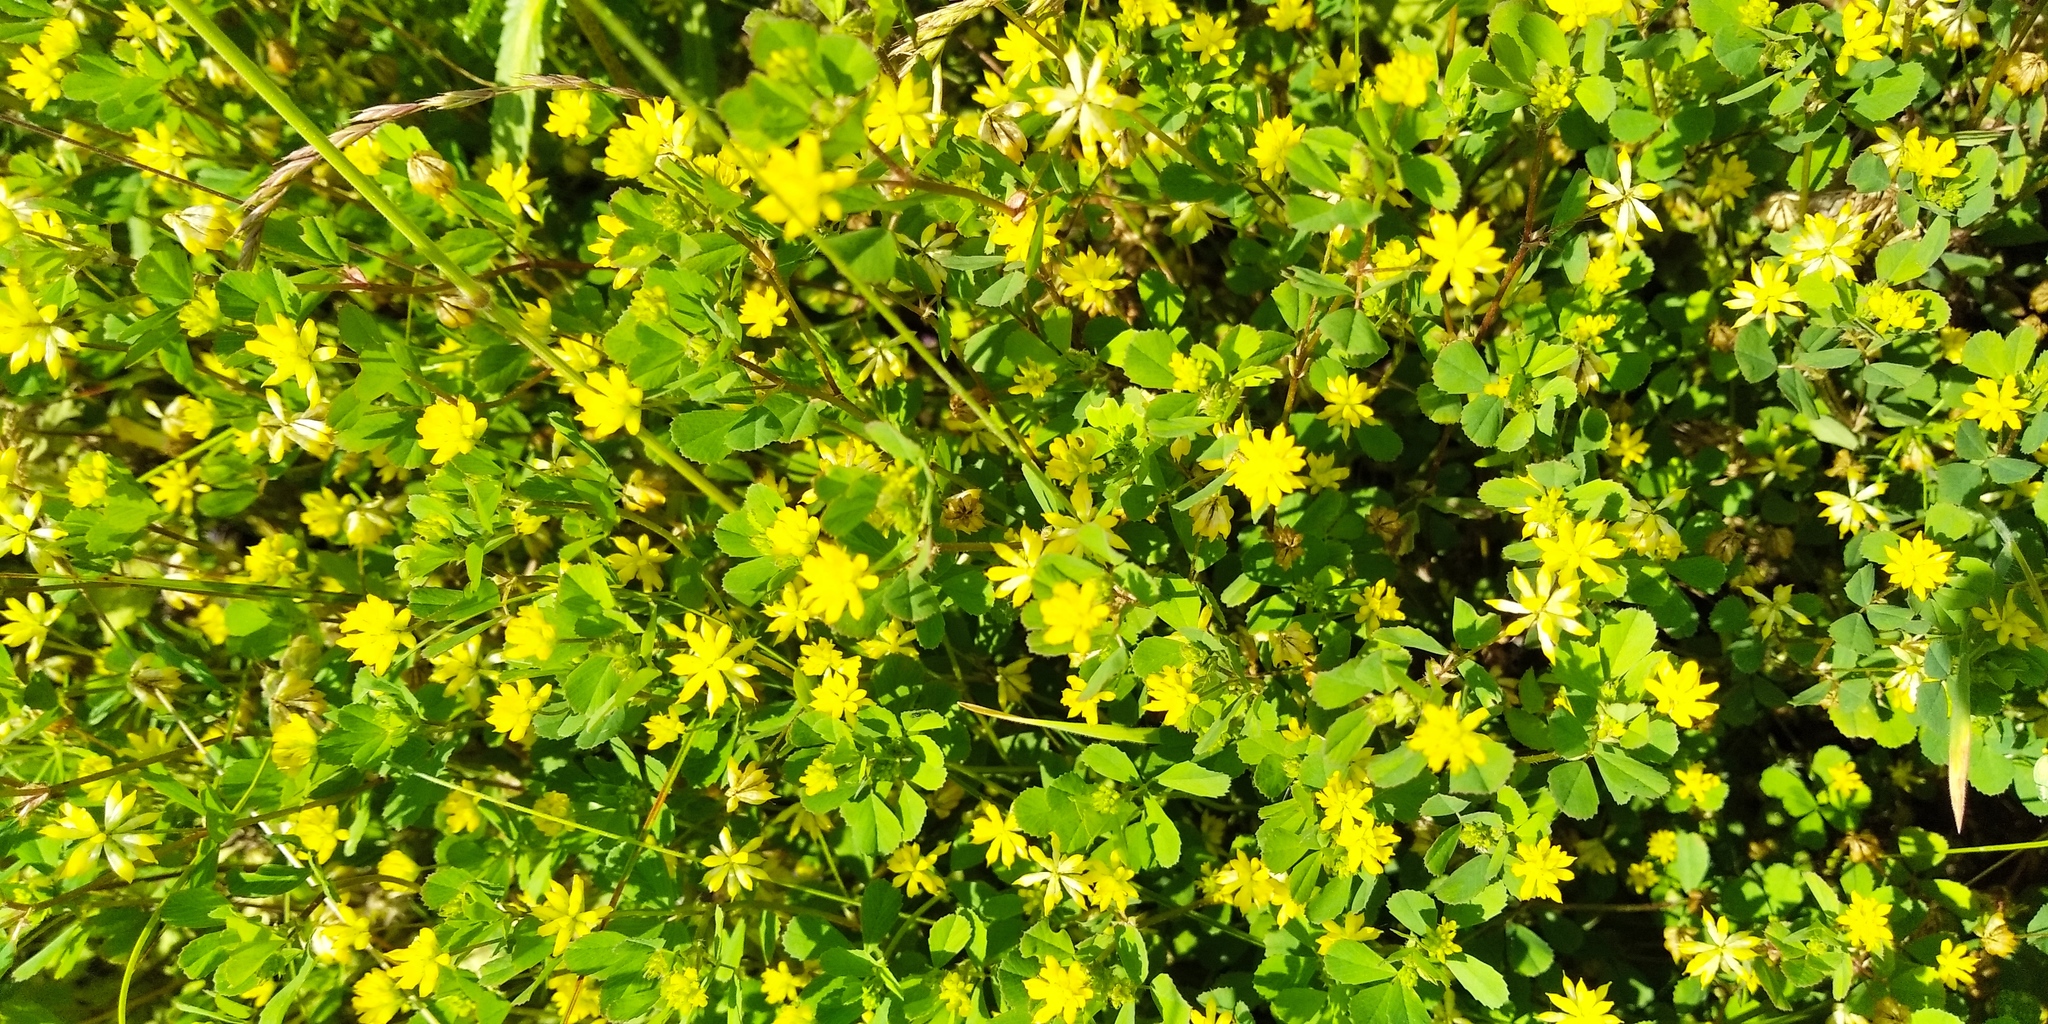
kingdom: Plantae
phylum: Tracheophyta
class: Magnoliopsida
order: Fabales
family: Fabaceae
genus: Trifolium
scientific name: Trifolium dubium
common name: Suckling clover
